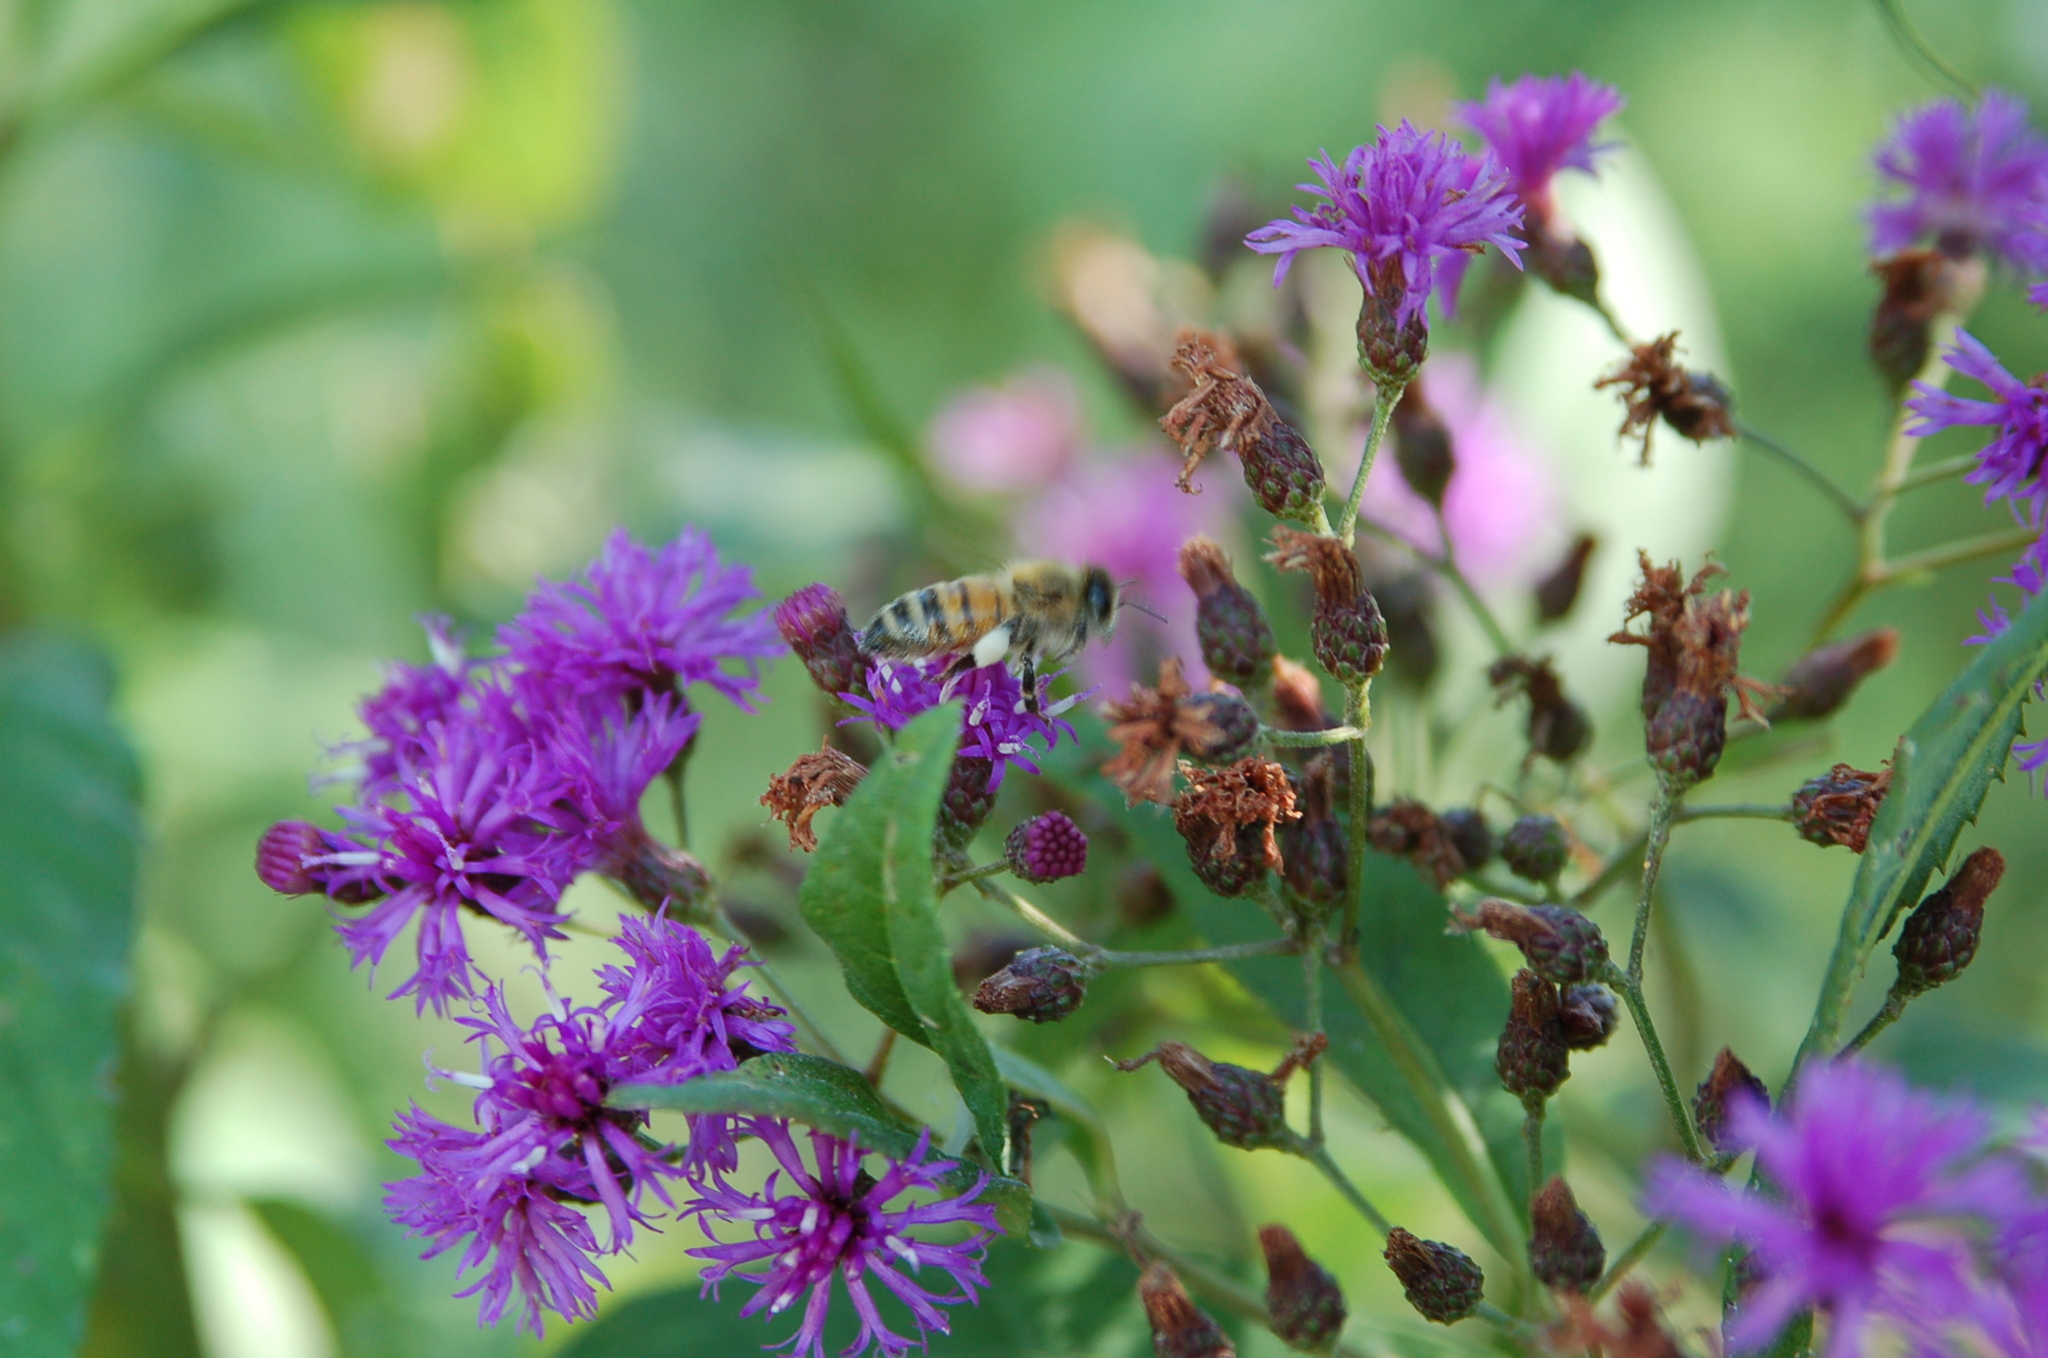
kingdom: Animalia
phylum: Arthropoda
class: Insecta
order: Hymenoptera
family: Apidae
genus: Apis
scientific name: Apis mellifera
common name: Honey bee
